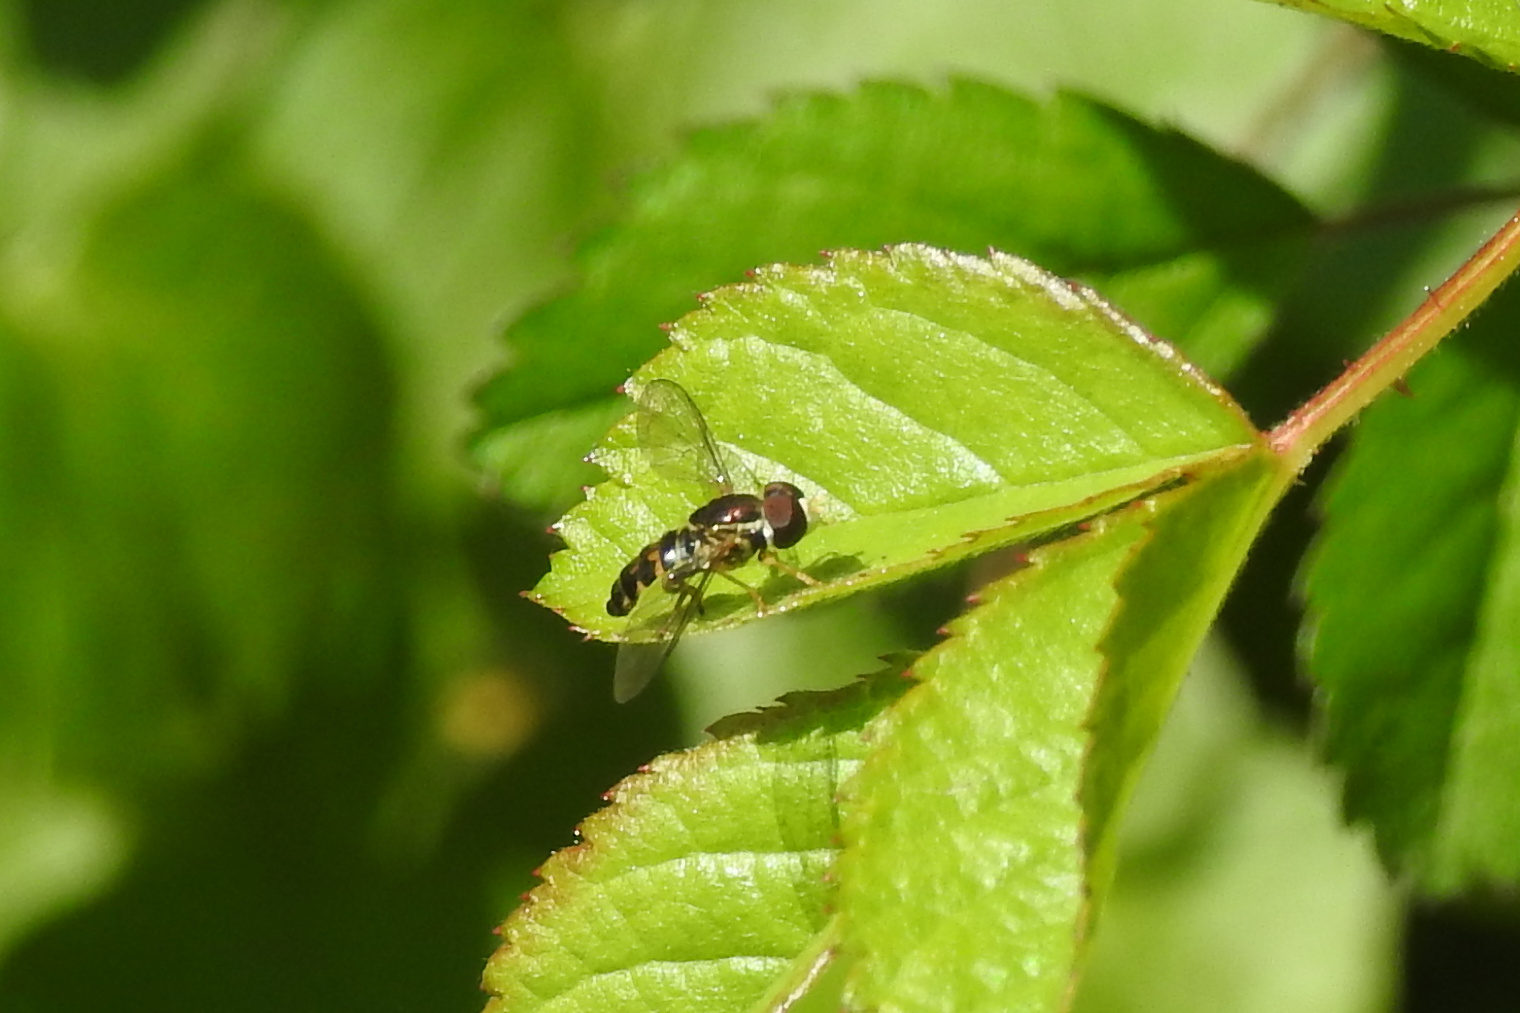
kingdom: Animalia
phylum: Arthropoda
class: Insecta
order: Diptera
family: Syrphidae
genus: Toxomerus
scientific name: Toxomerus geminatus
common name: Eastern calligrapher
